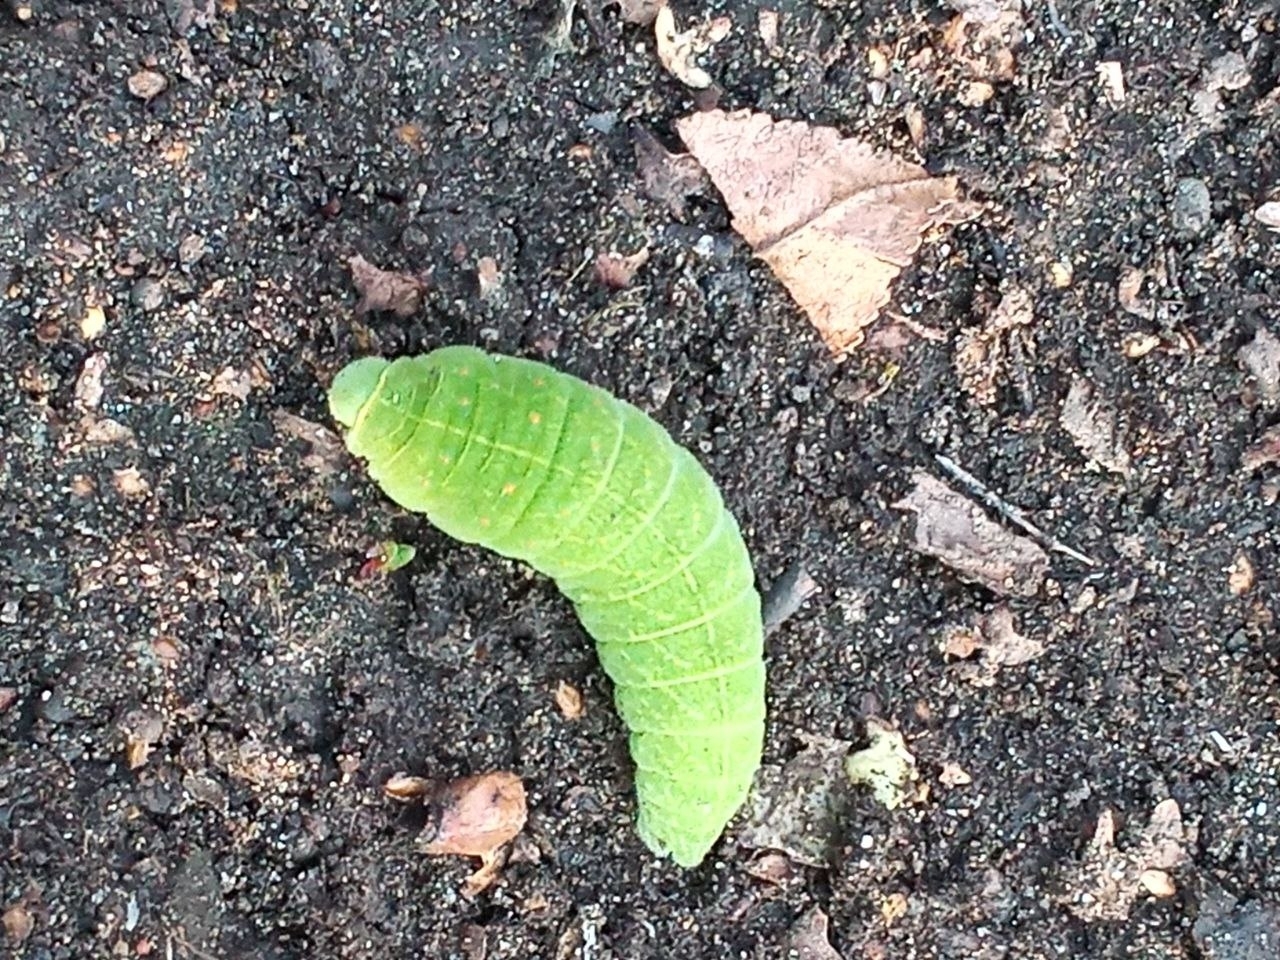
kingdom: Animalia
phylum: Arthropoda
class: Insecta
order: Lepidoptera
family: Papilionidae
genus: Iphiclides
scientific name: Iphiclides podalirius
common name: Scarce swallowtail
